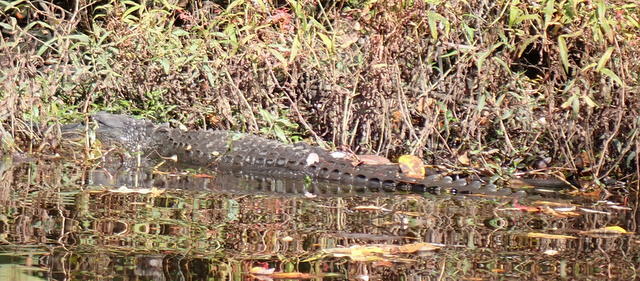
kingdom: Animalia
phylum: Chordata
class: Crocodylia
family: Alligatoridae
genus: Alligator
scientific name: Alligator mississippiensis
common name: American alligator
